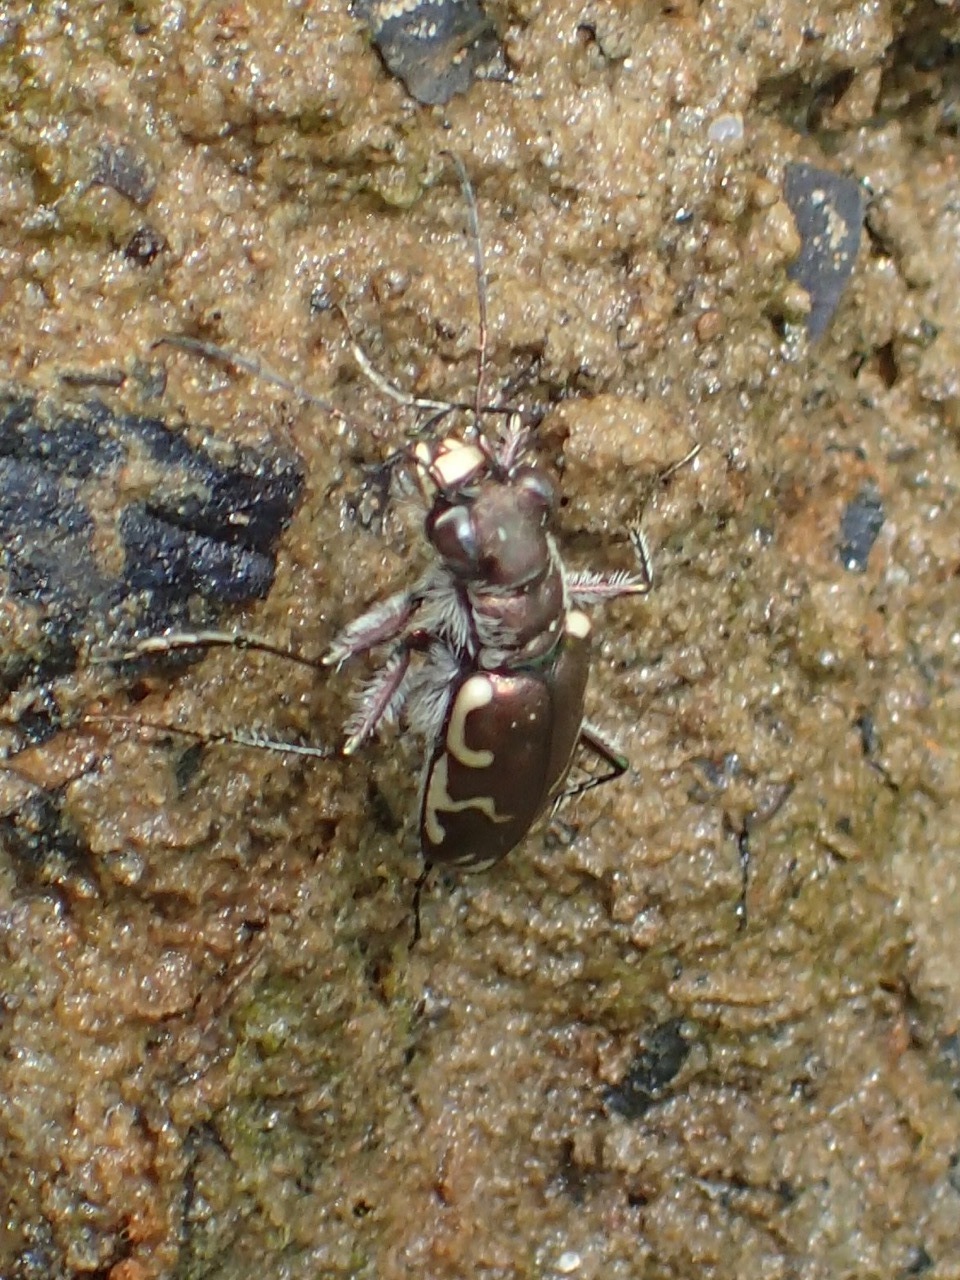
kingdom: Animalia
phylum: Arthropoda
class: Insecta
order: Coleoptera
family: Carabidae
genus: Cicindela
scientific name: Cicindela repanda
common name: Bronzed tiger beetle
